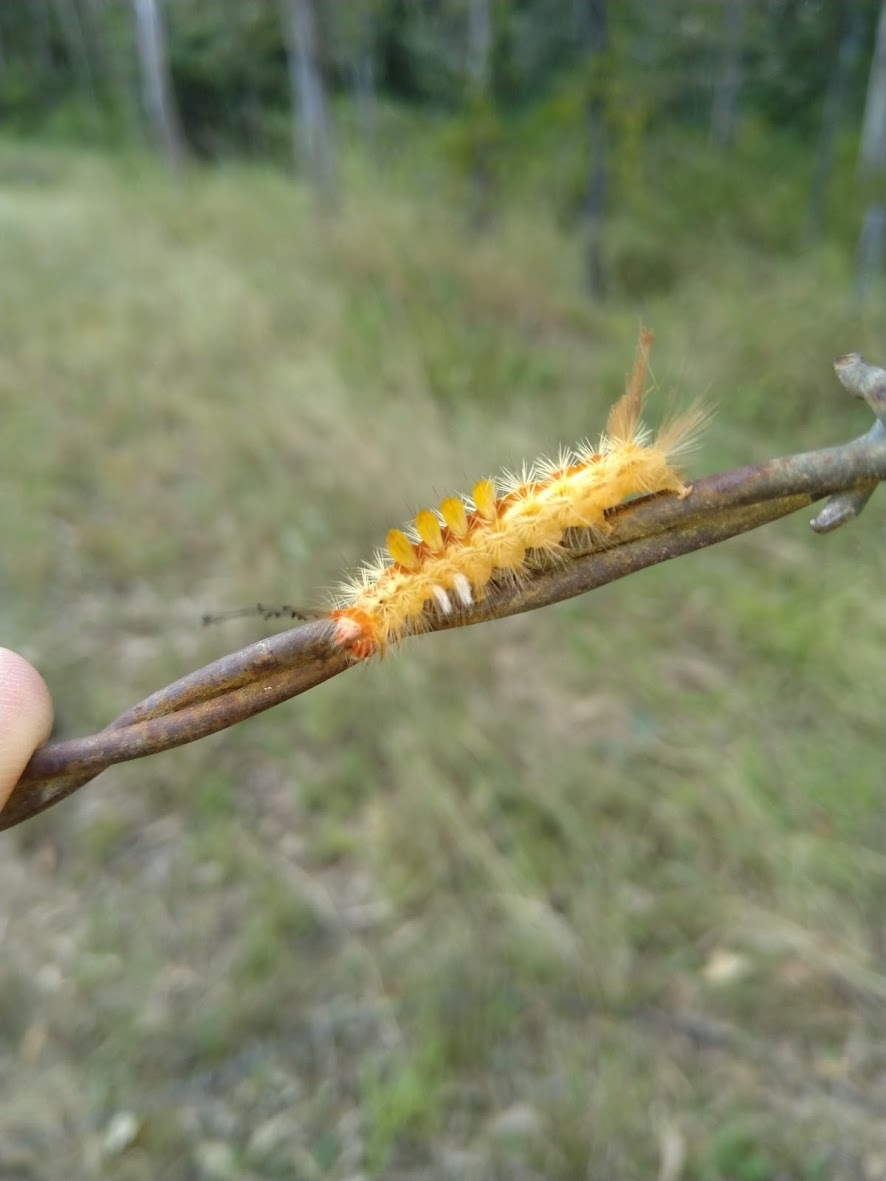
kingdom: Animalia
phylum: Arthropoda
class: Insecta
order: Lepidoptera
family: Erebidae
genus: Orgyia
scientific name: Orgyia australis
